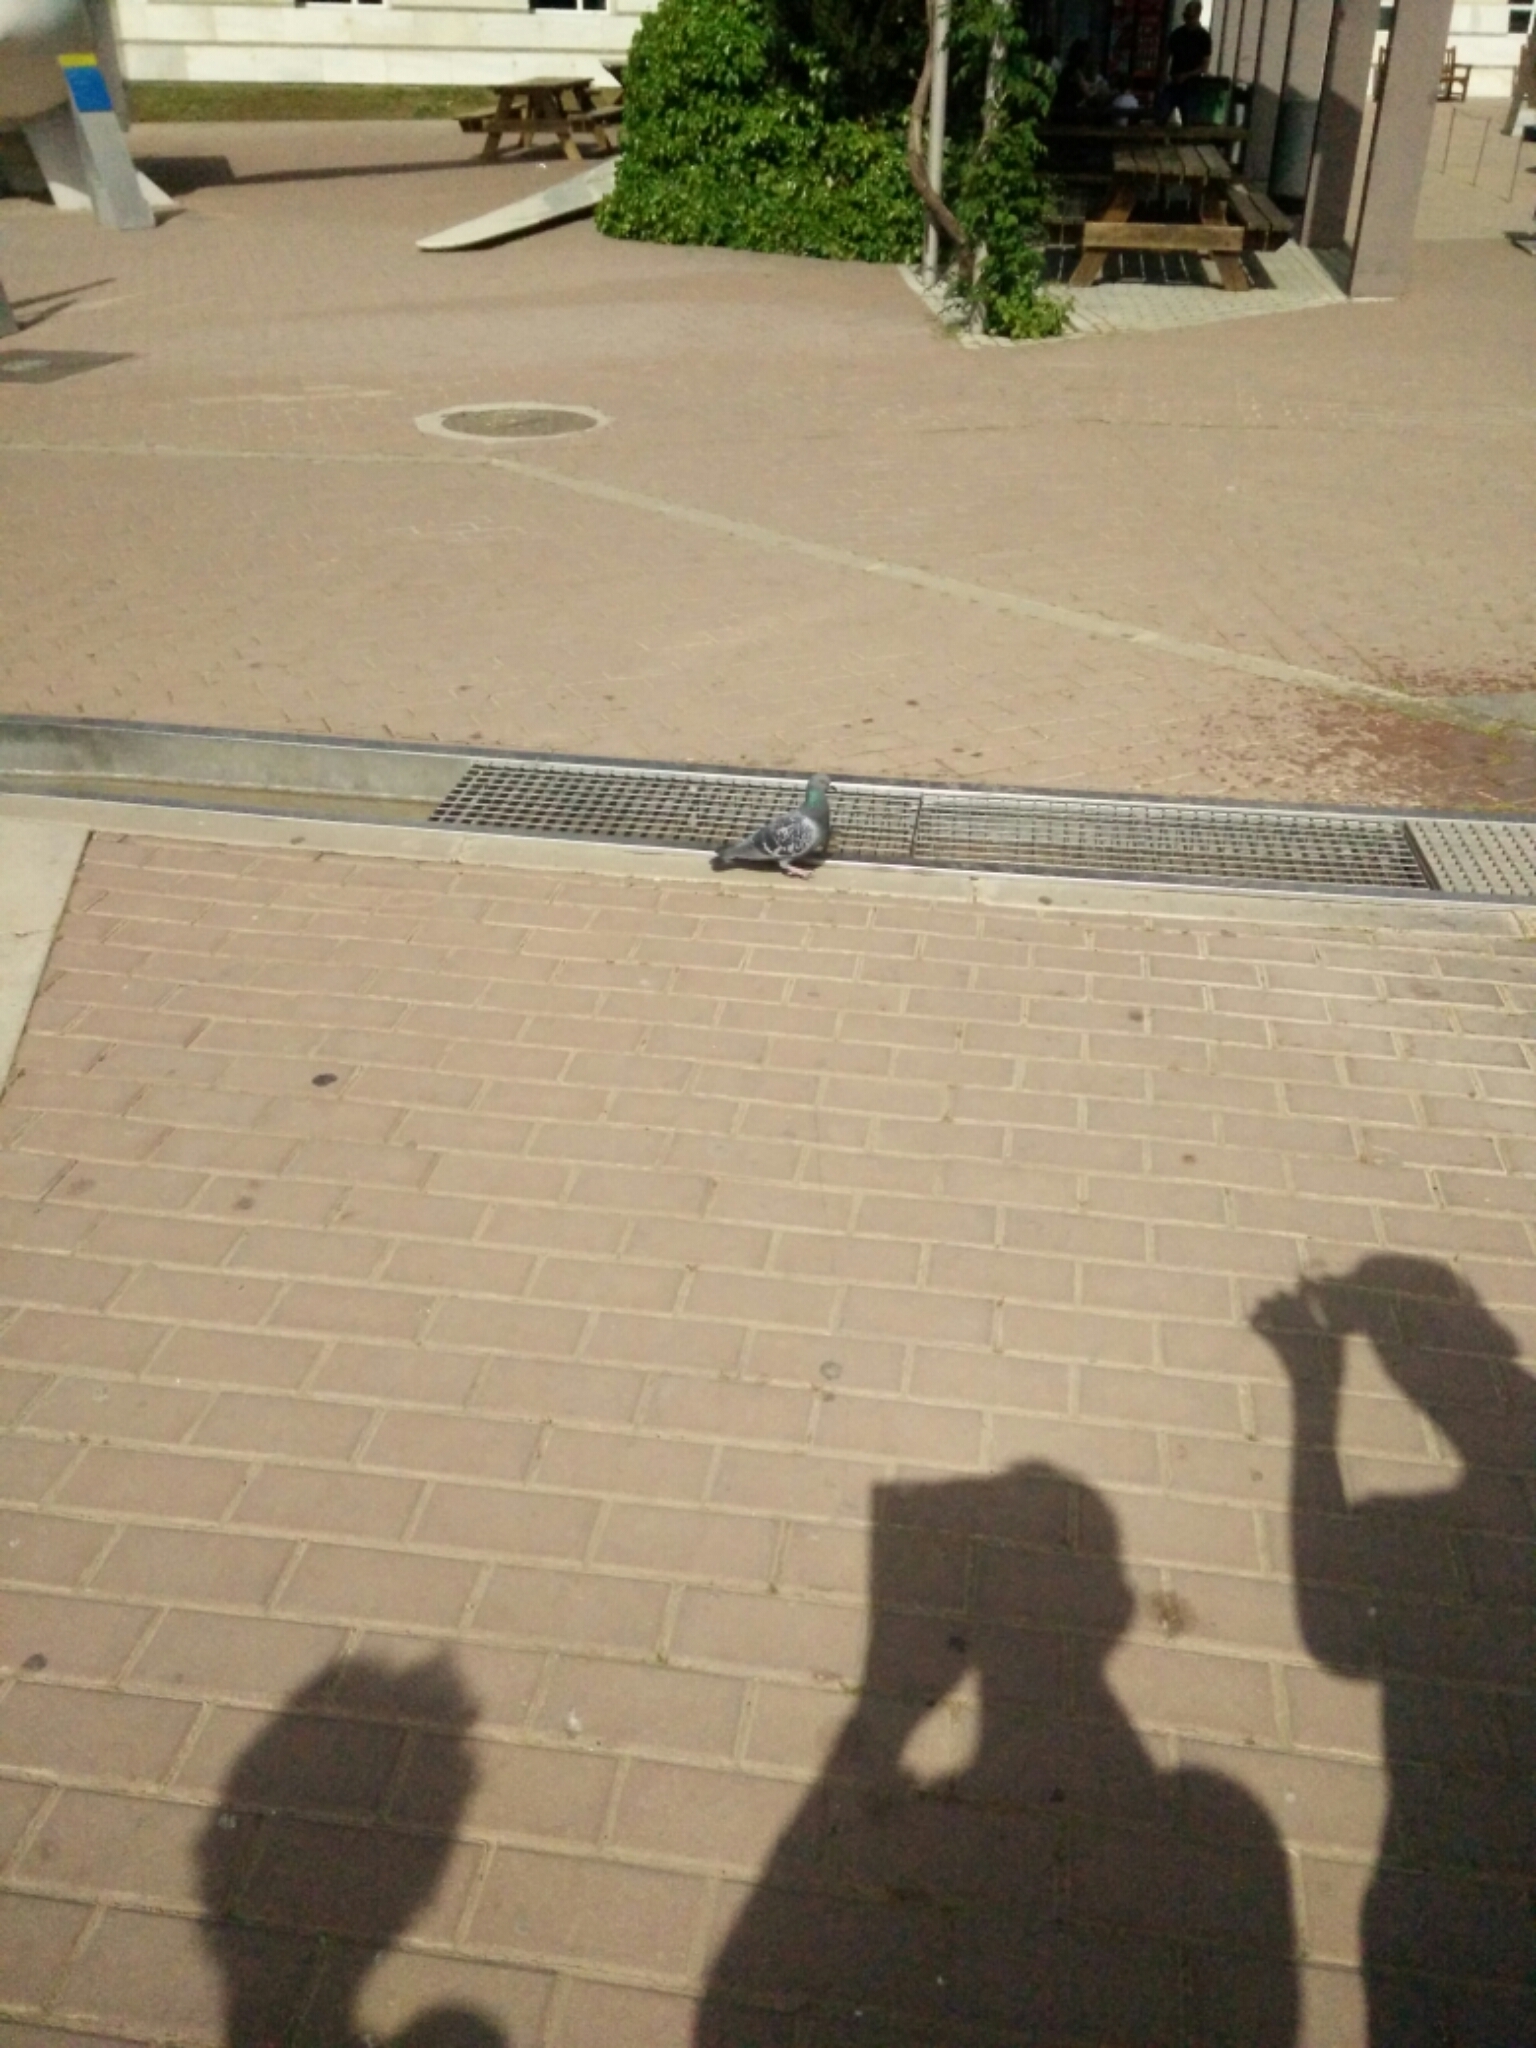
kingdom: Animalia
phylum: Chordata
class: Aves
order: Columbiformes
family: Columbidae
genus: Columba
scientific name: Columba livia
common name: Rock pigeon
